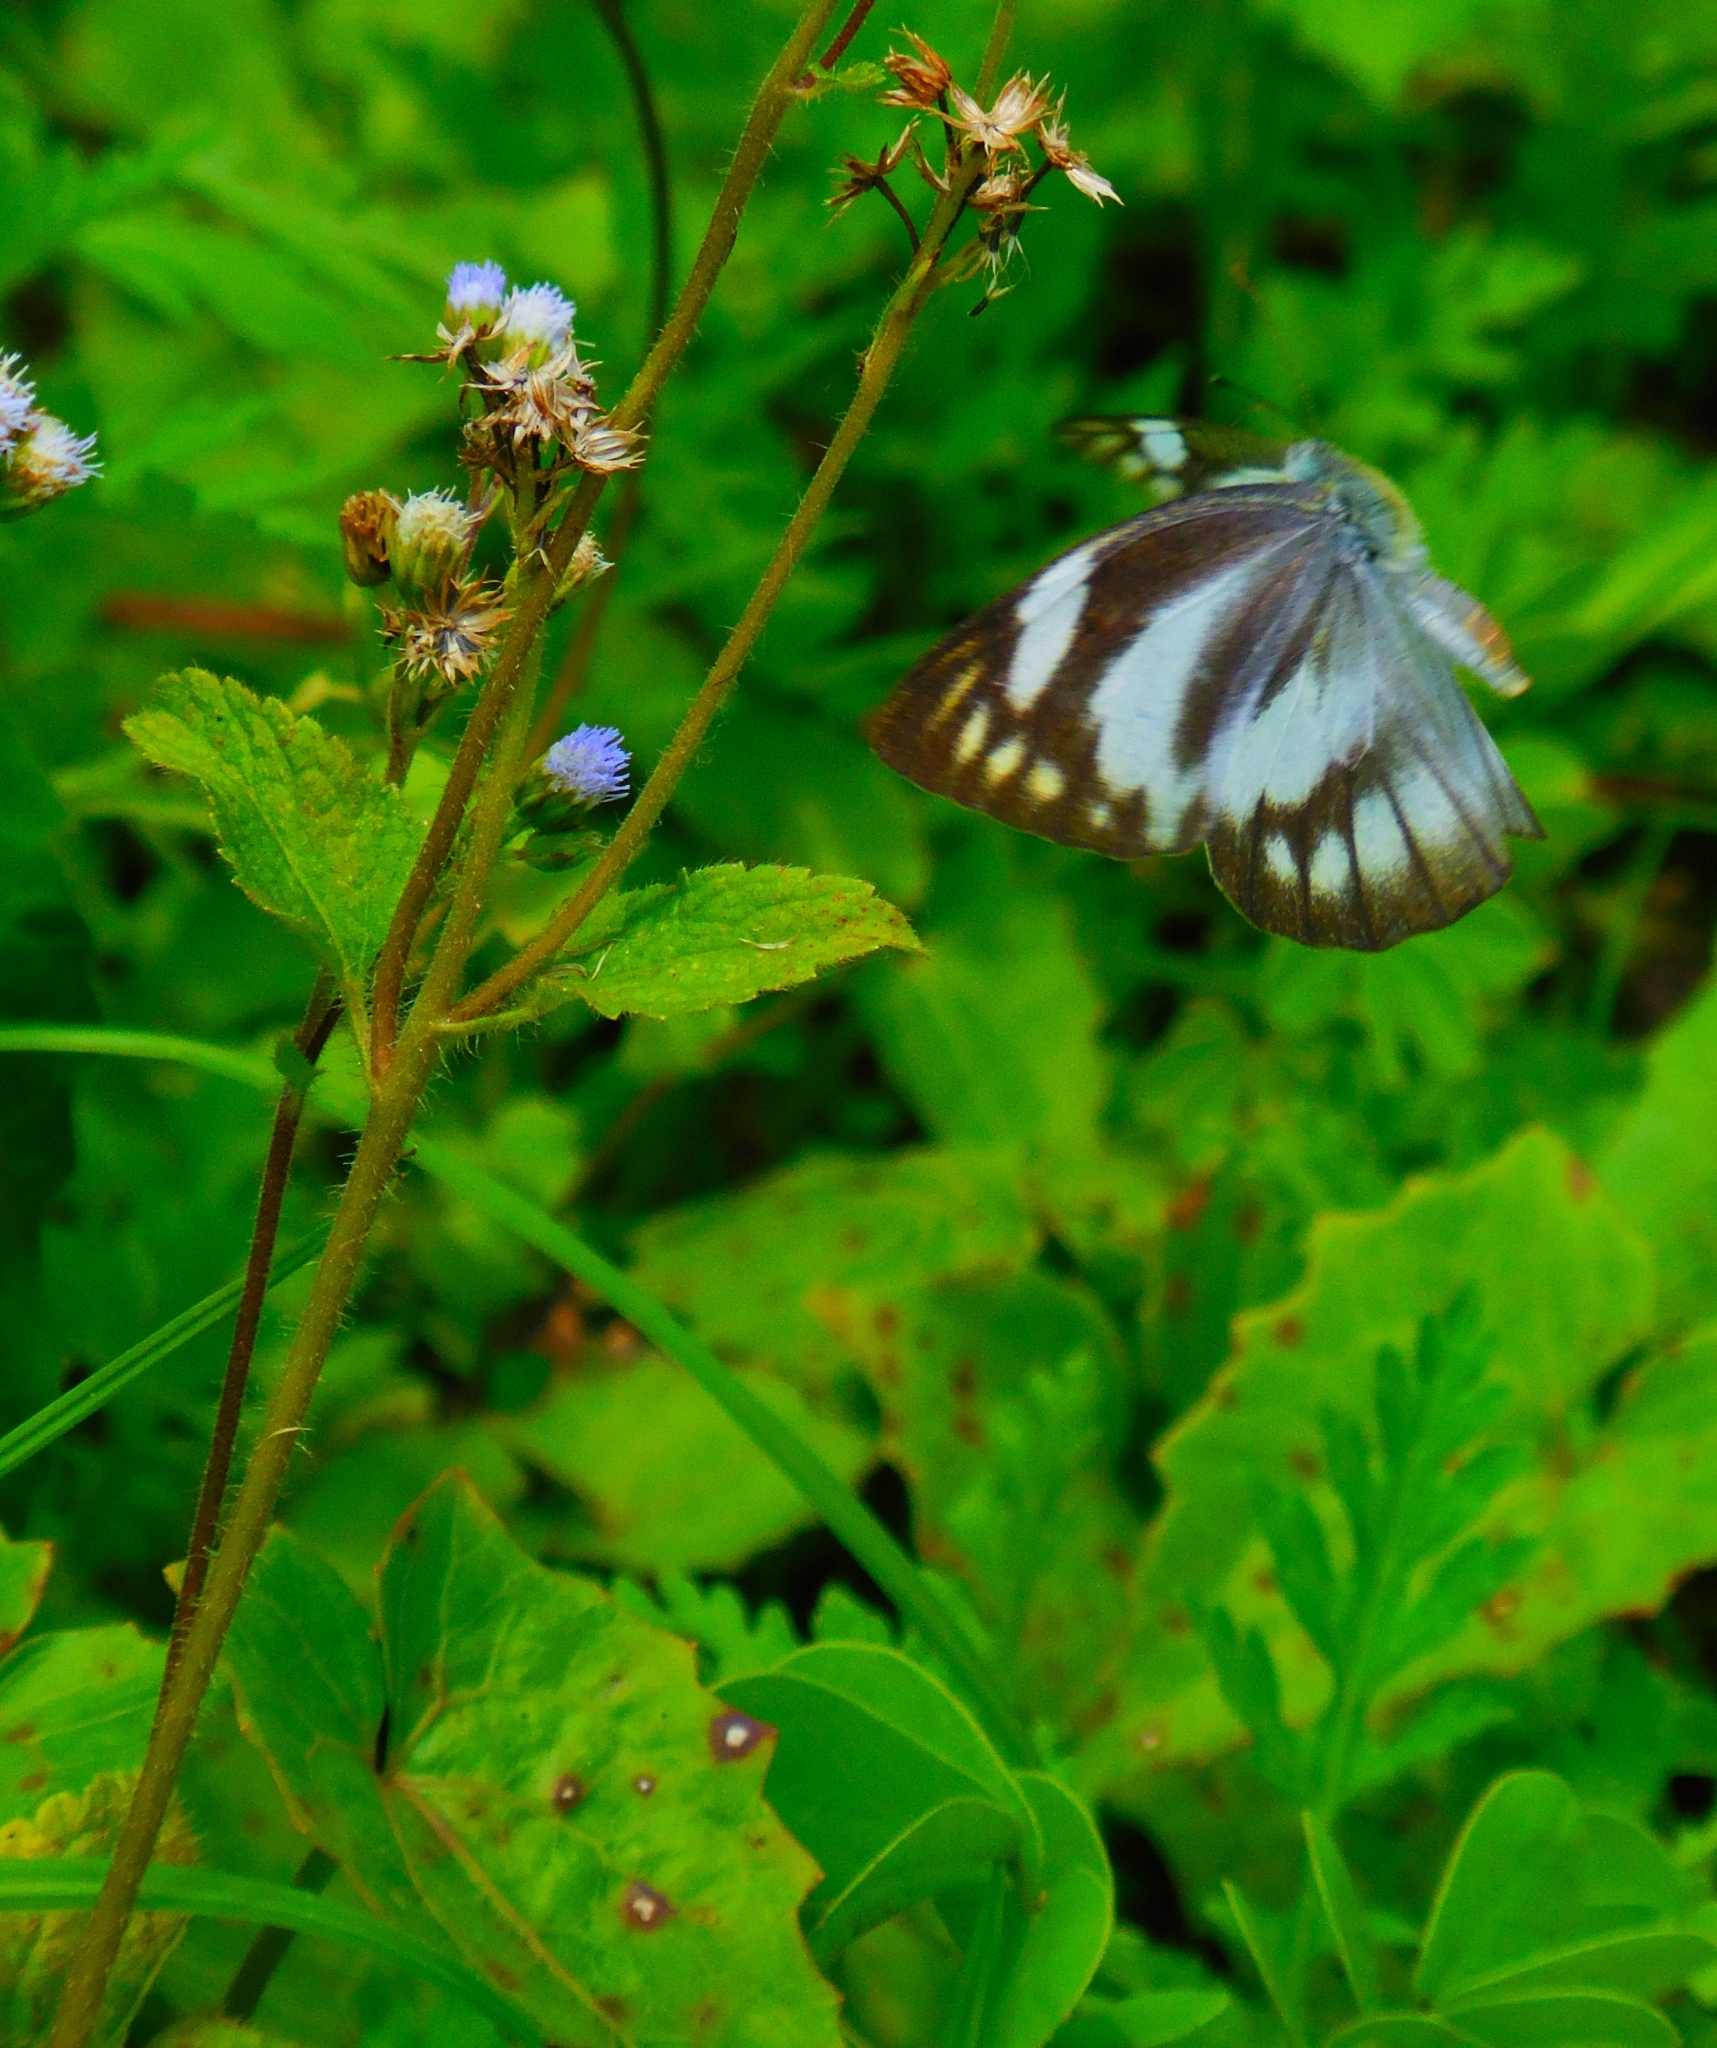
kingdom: Animalia
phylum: Arthropoda
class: Insecta
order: Lepidoptera
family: Pieridae
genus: Appias
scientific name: Appias libythea
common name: Striped albatross
